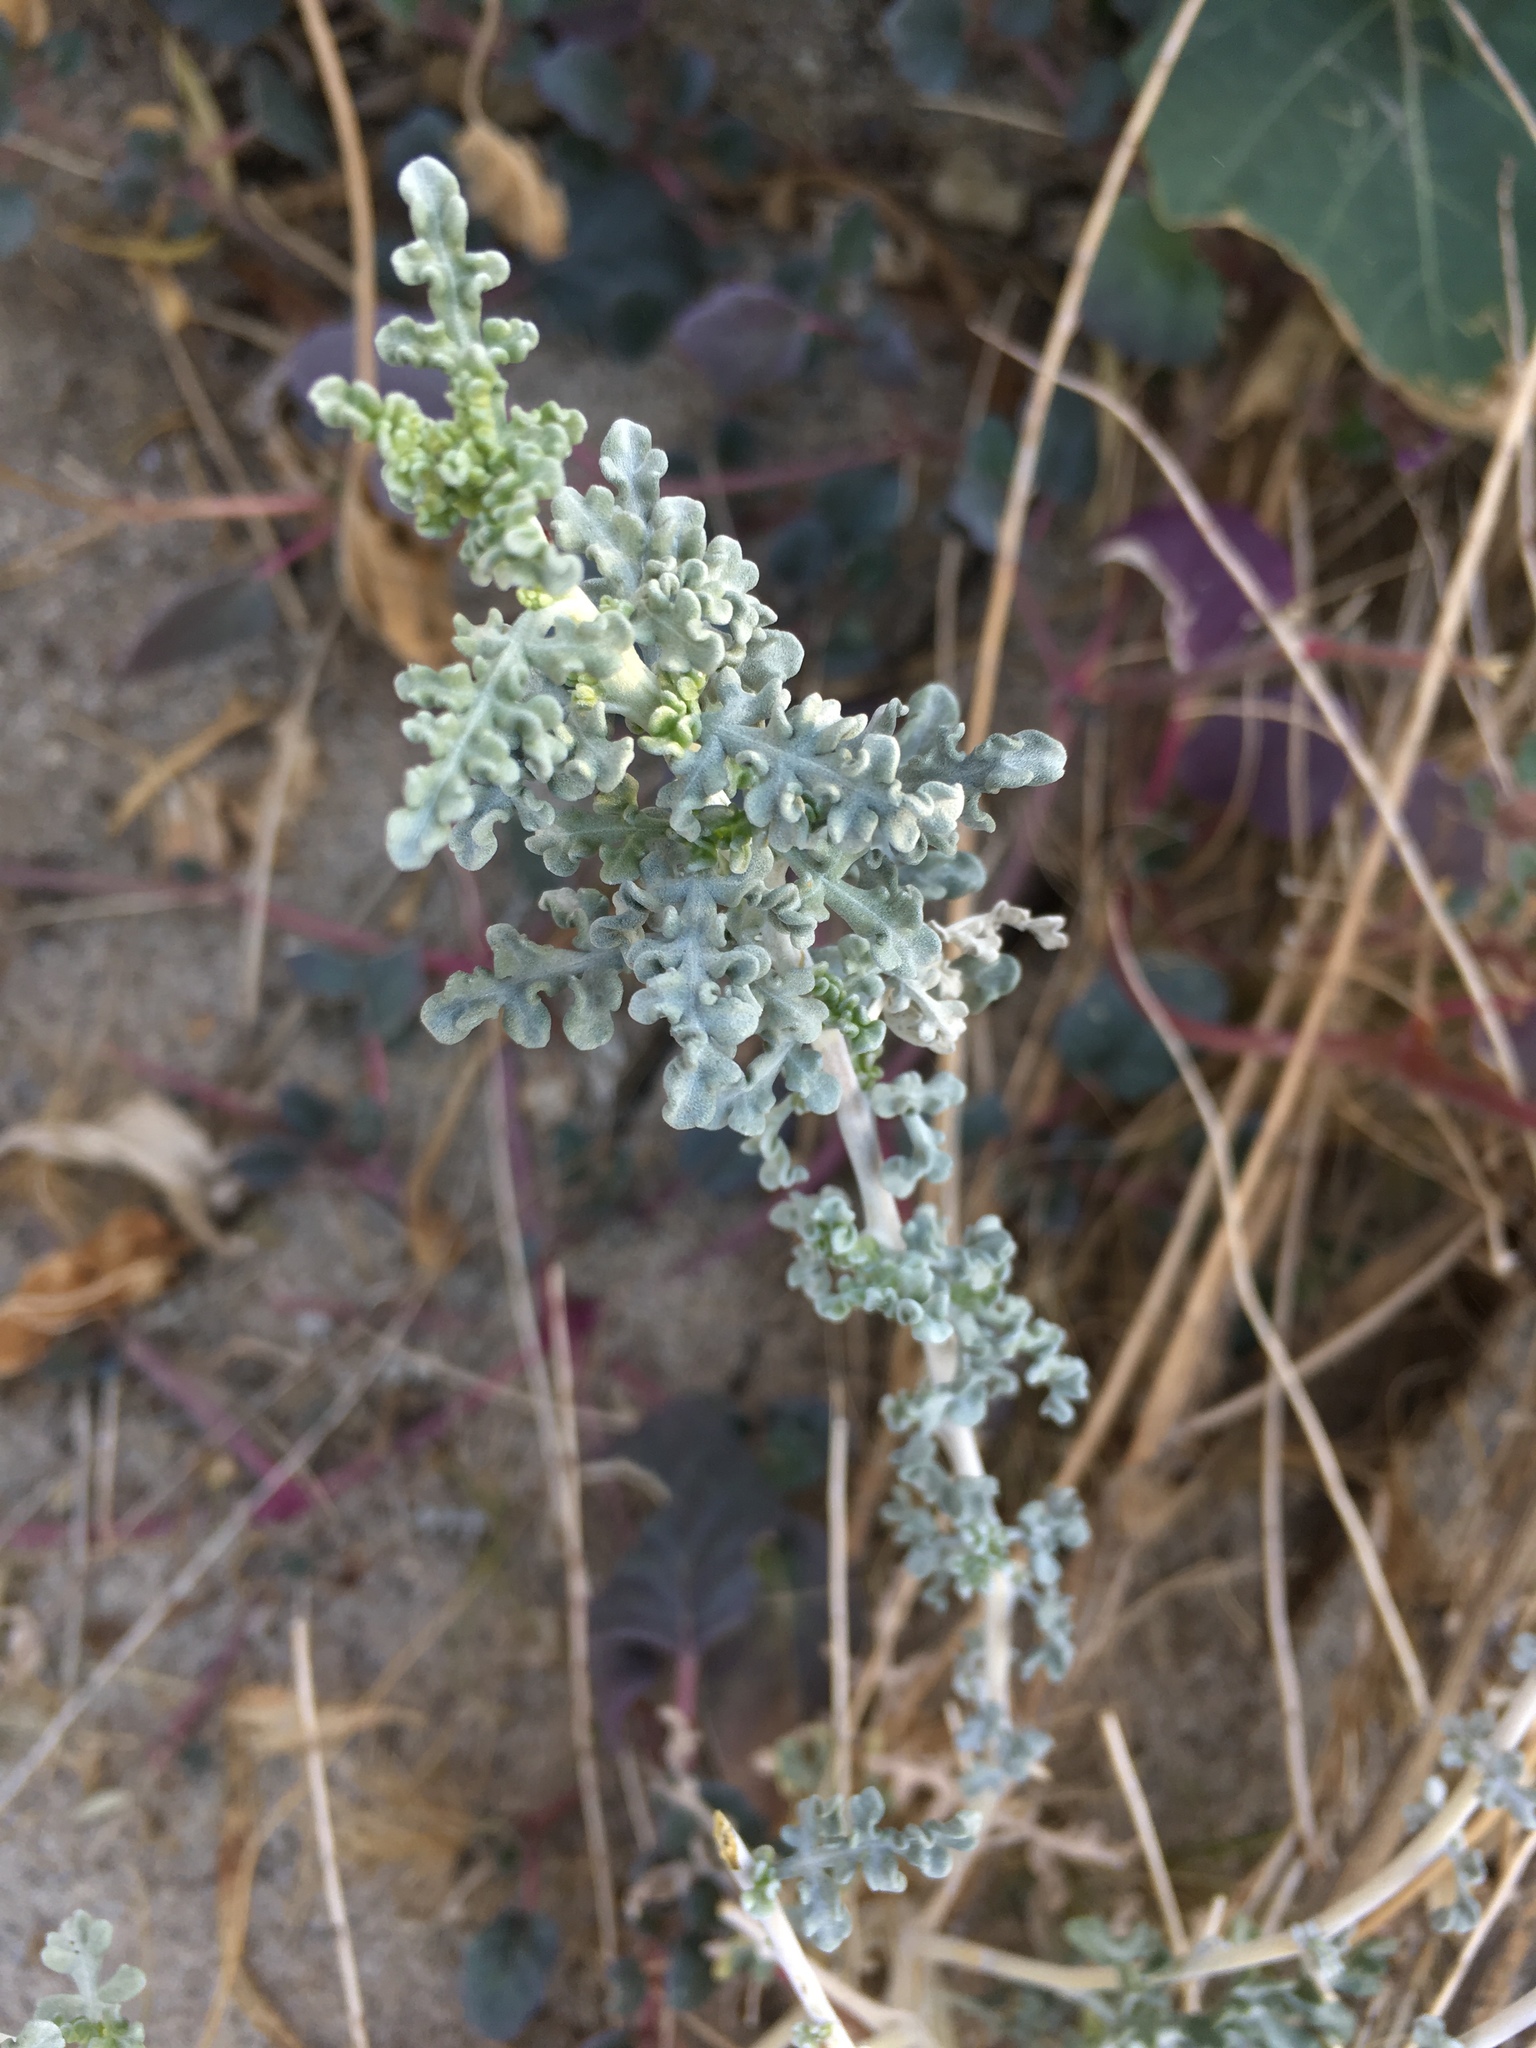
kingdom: Plantae
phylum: Tracheophyta
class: Magnoliopsida
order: Asterales
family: Asteraceae
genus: Ambrosia
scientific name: Ambrosia dumosa
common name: Bur-sage
